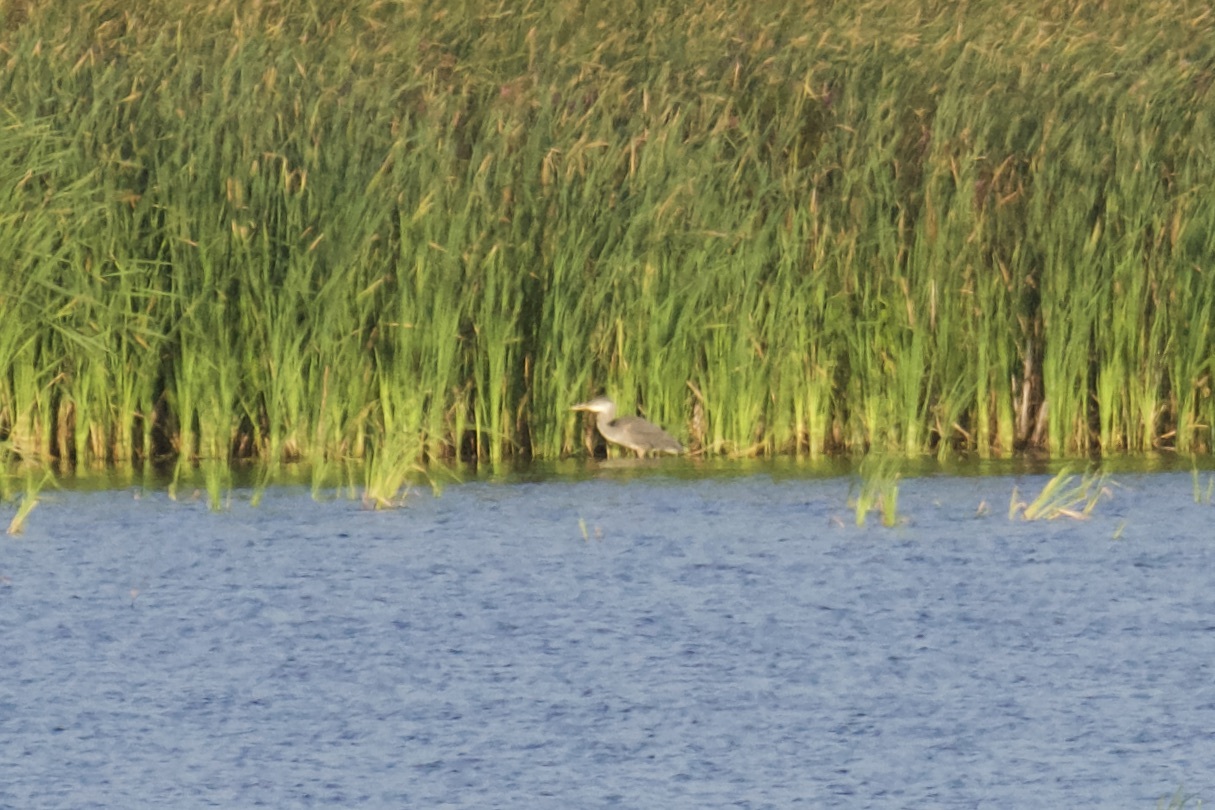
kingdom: Animalia
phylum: Chordata
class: Aves
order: Pelecaniformes
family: Ardeidae
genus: Ardea
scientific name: Ardea herodias
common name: Great blue heron
